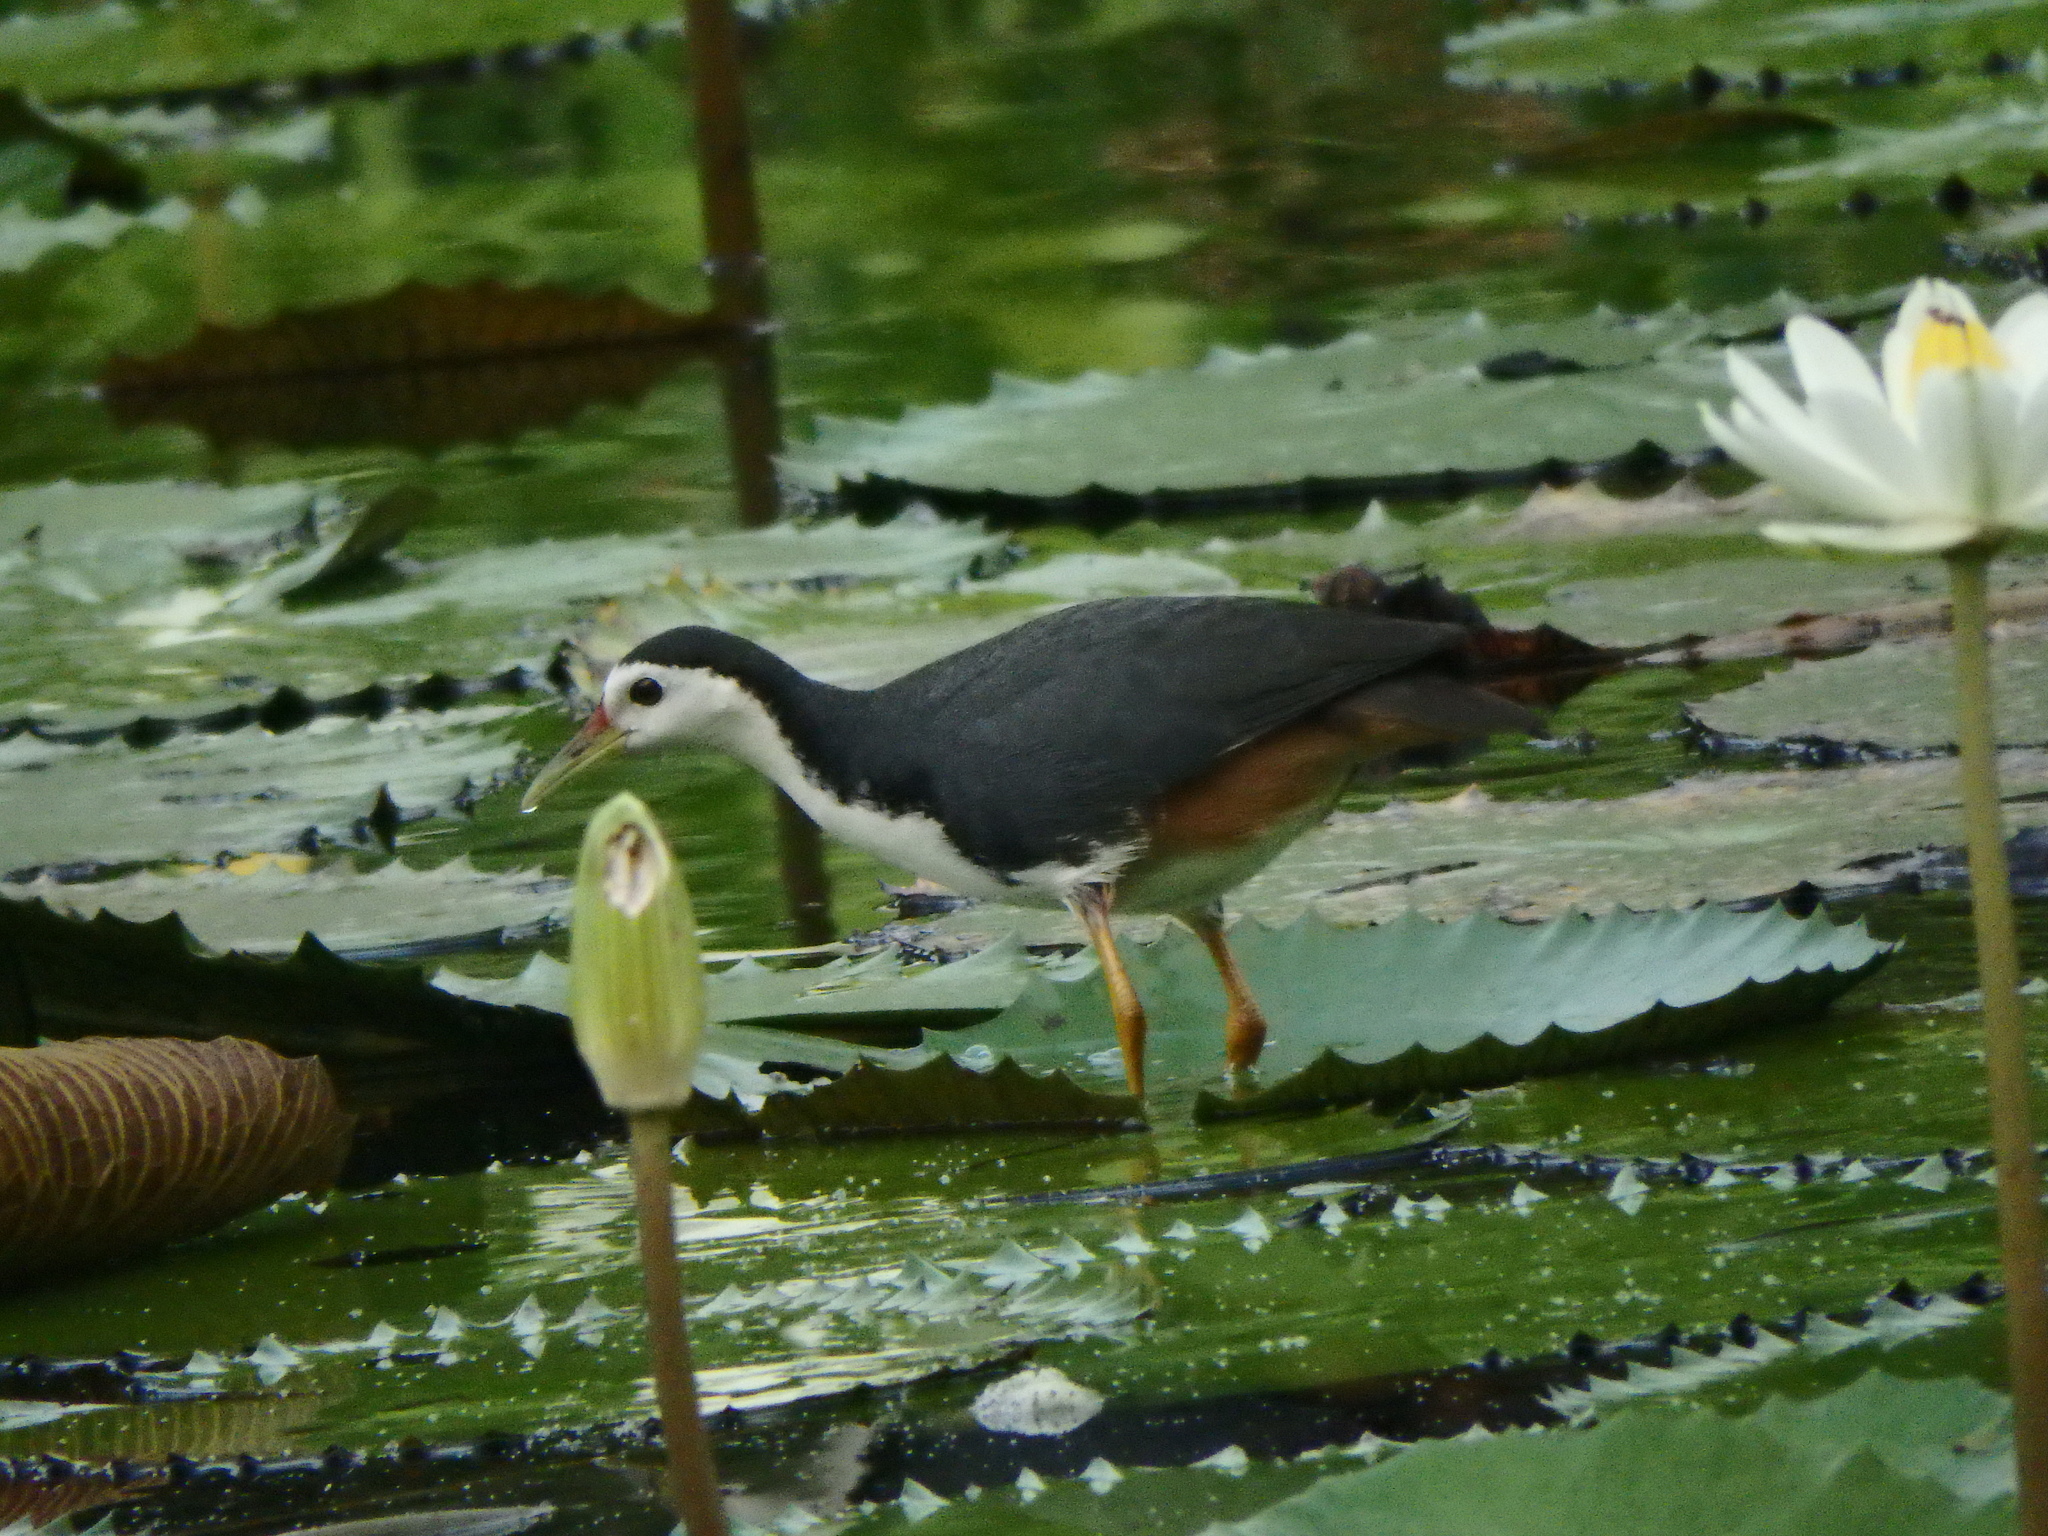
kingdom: Animalia
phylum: Chordata
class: Aves
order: Gruiformes
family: Rallidae
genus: Amaurornis
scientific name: Amaurornis phoenicurus
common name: White-breasted waterhen
